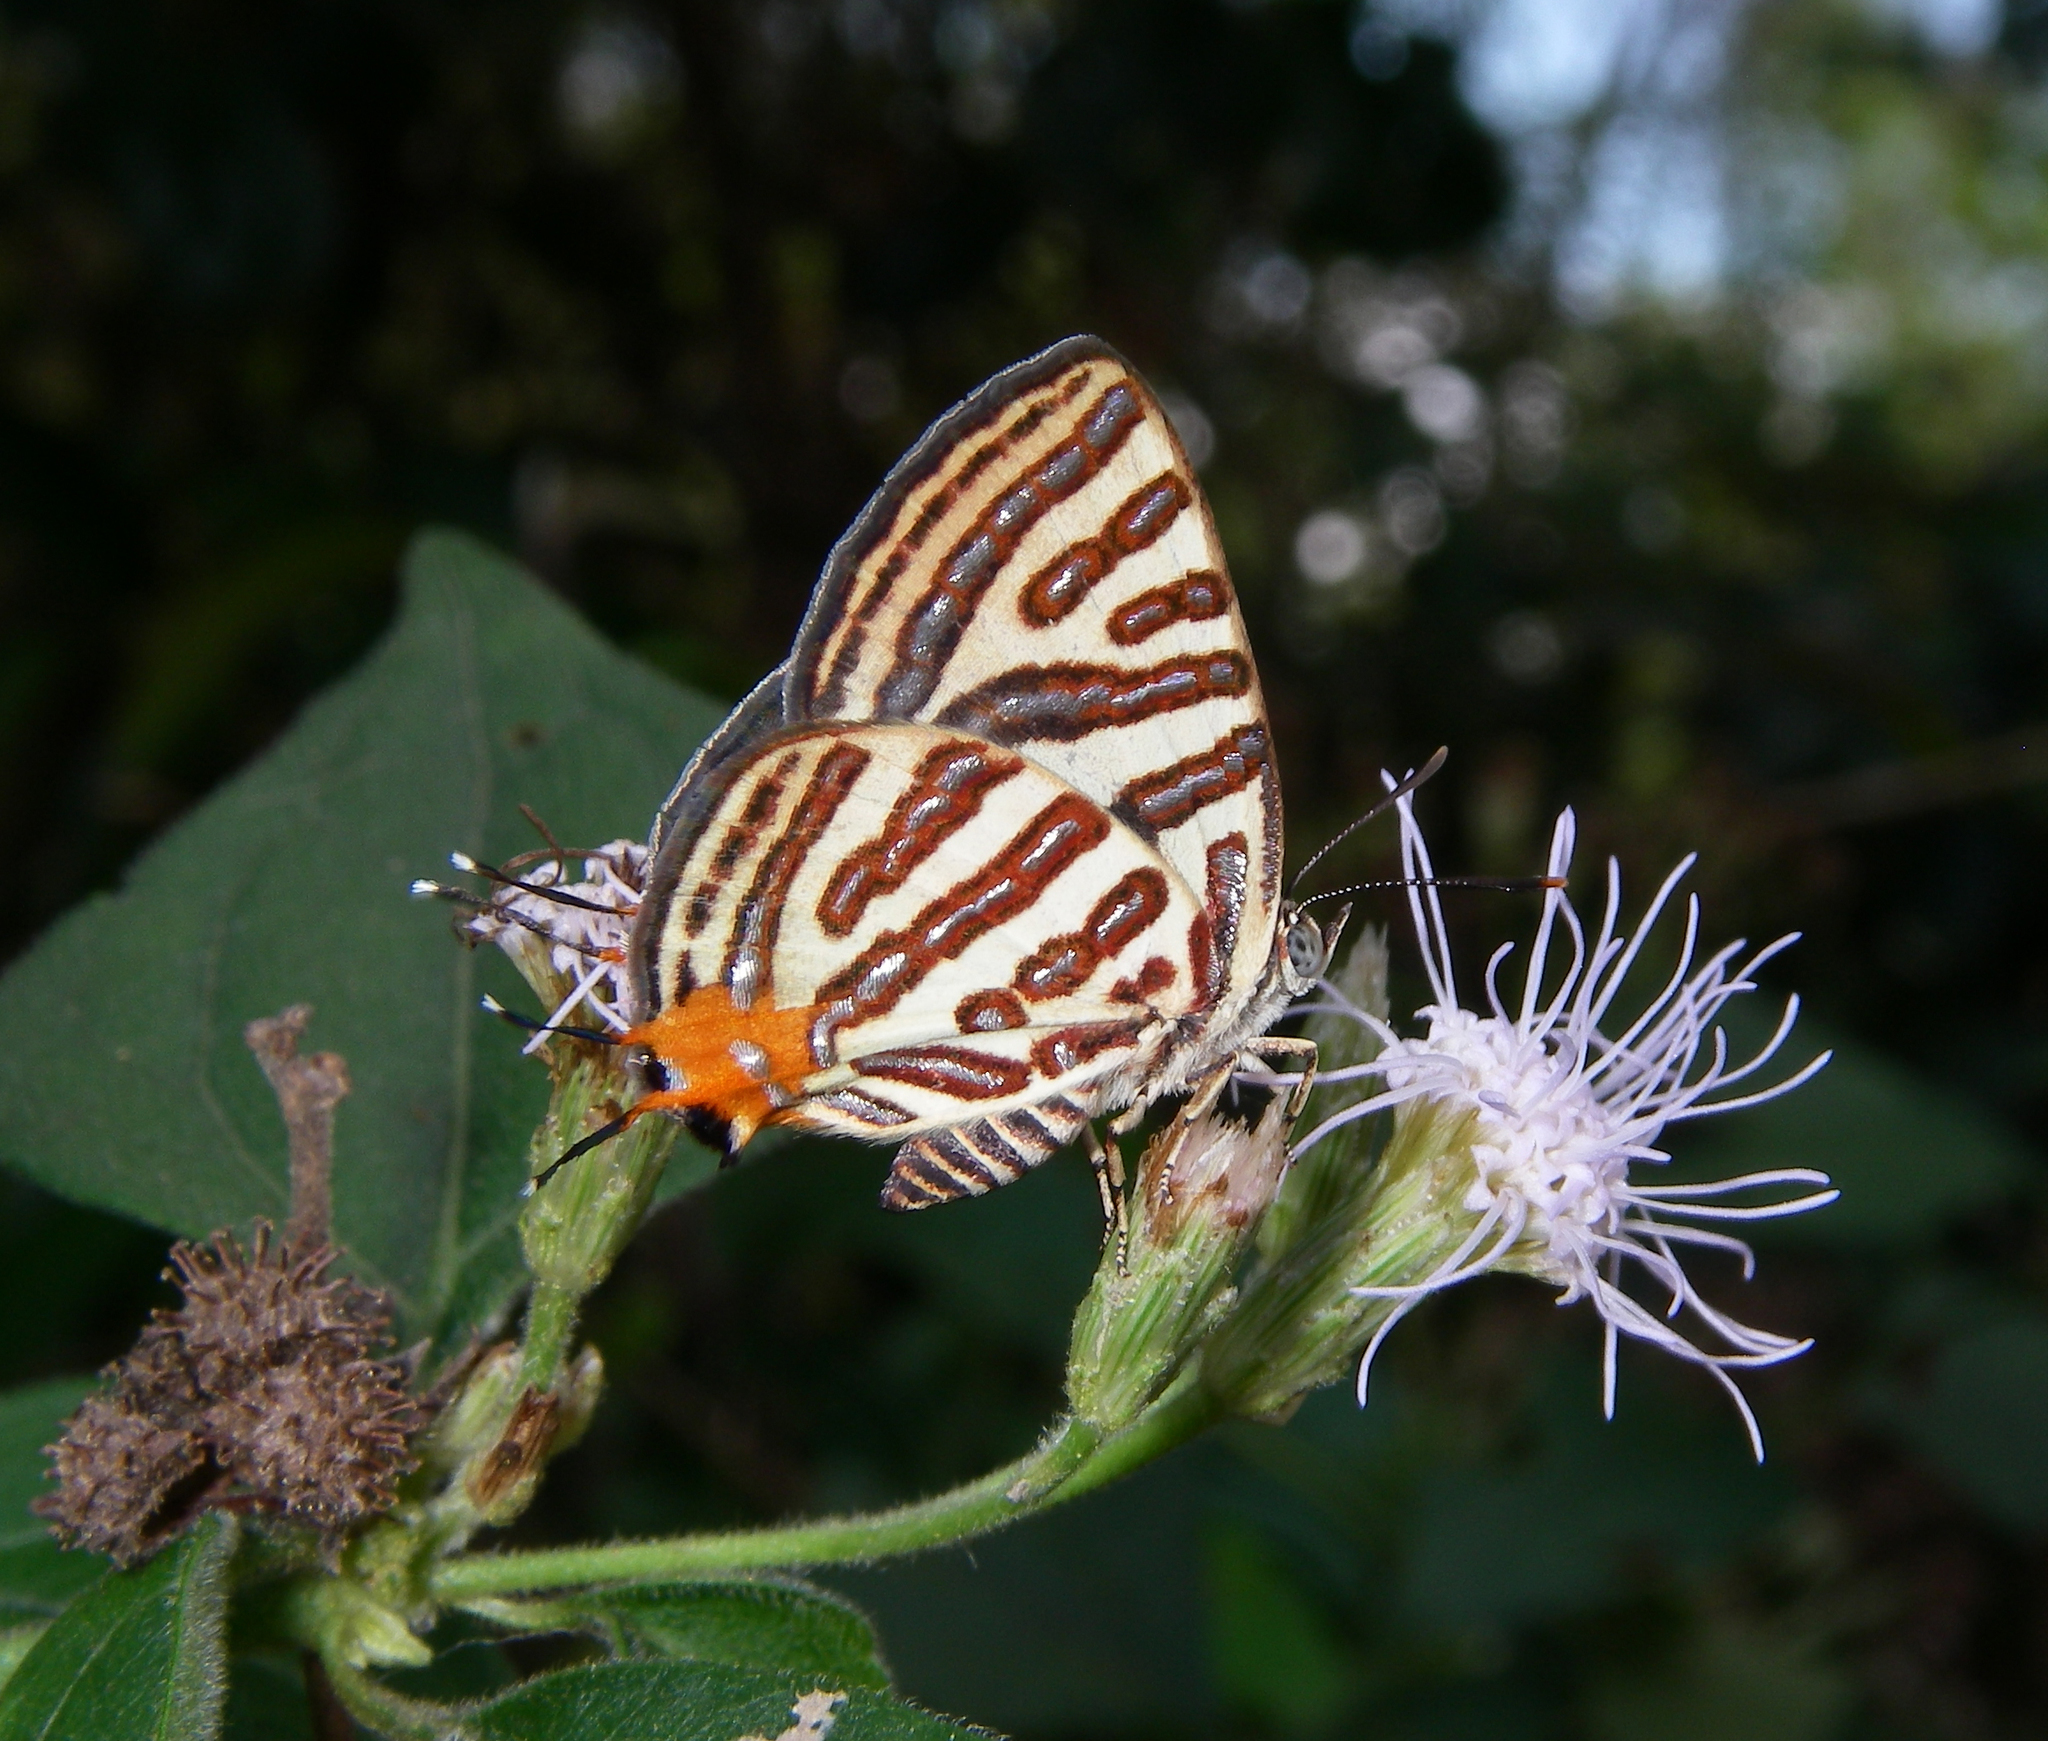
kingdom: Plantae
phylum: Tracheophyta
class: Magnoliopsida
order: Asterales
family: Asteraceae
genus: Chromolaena
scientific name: Chromolaena odorata
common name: Siamweed
